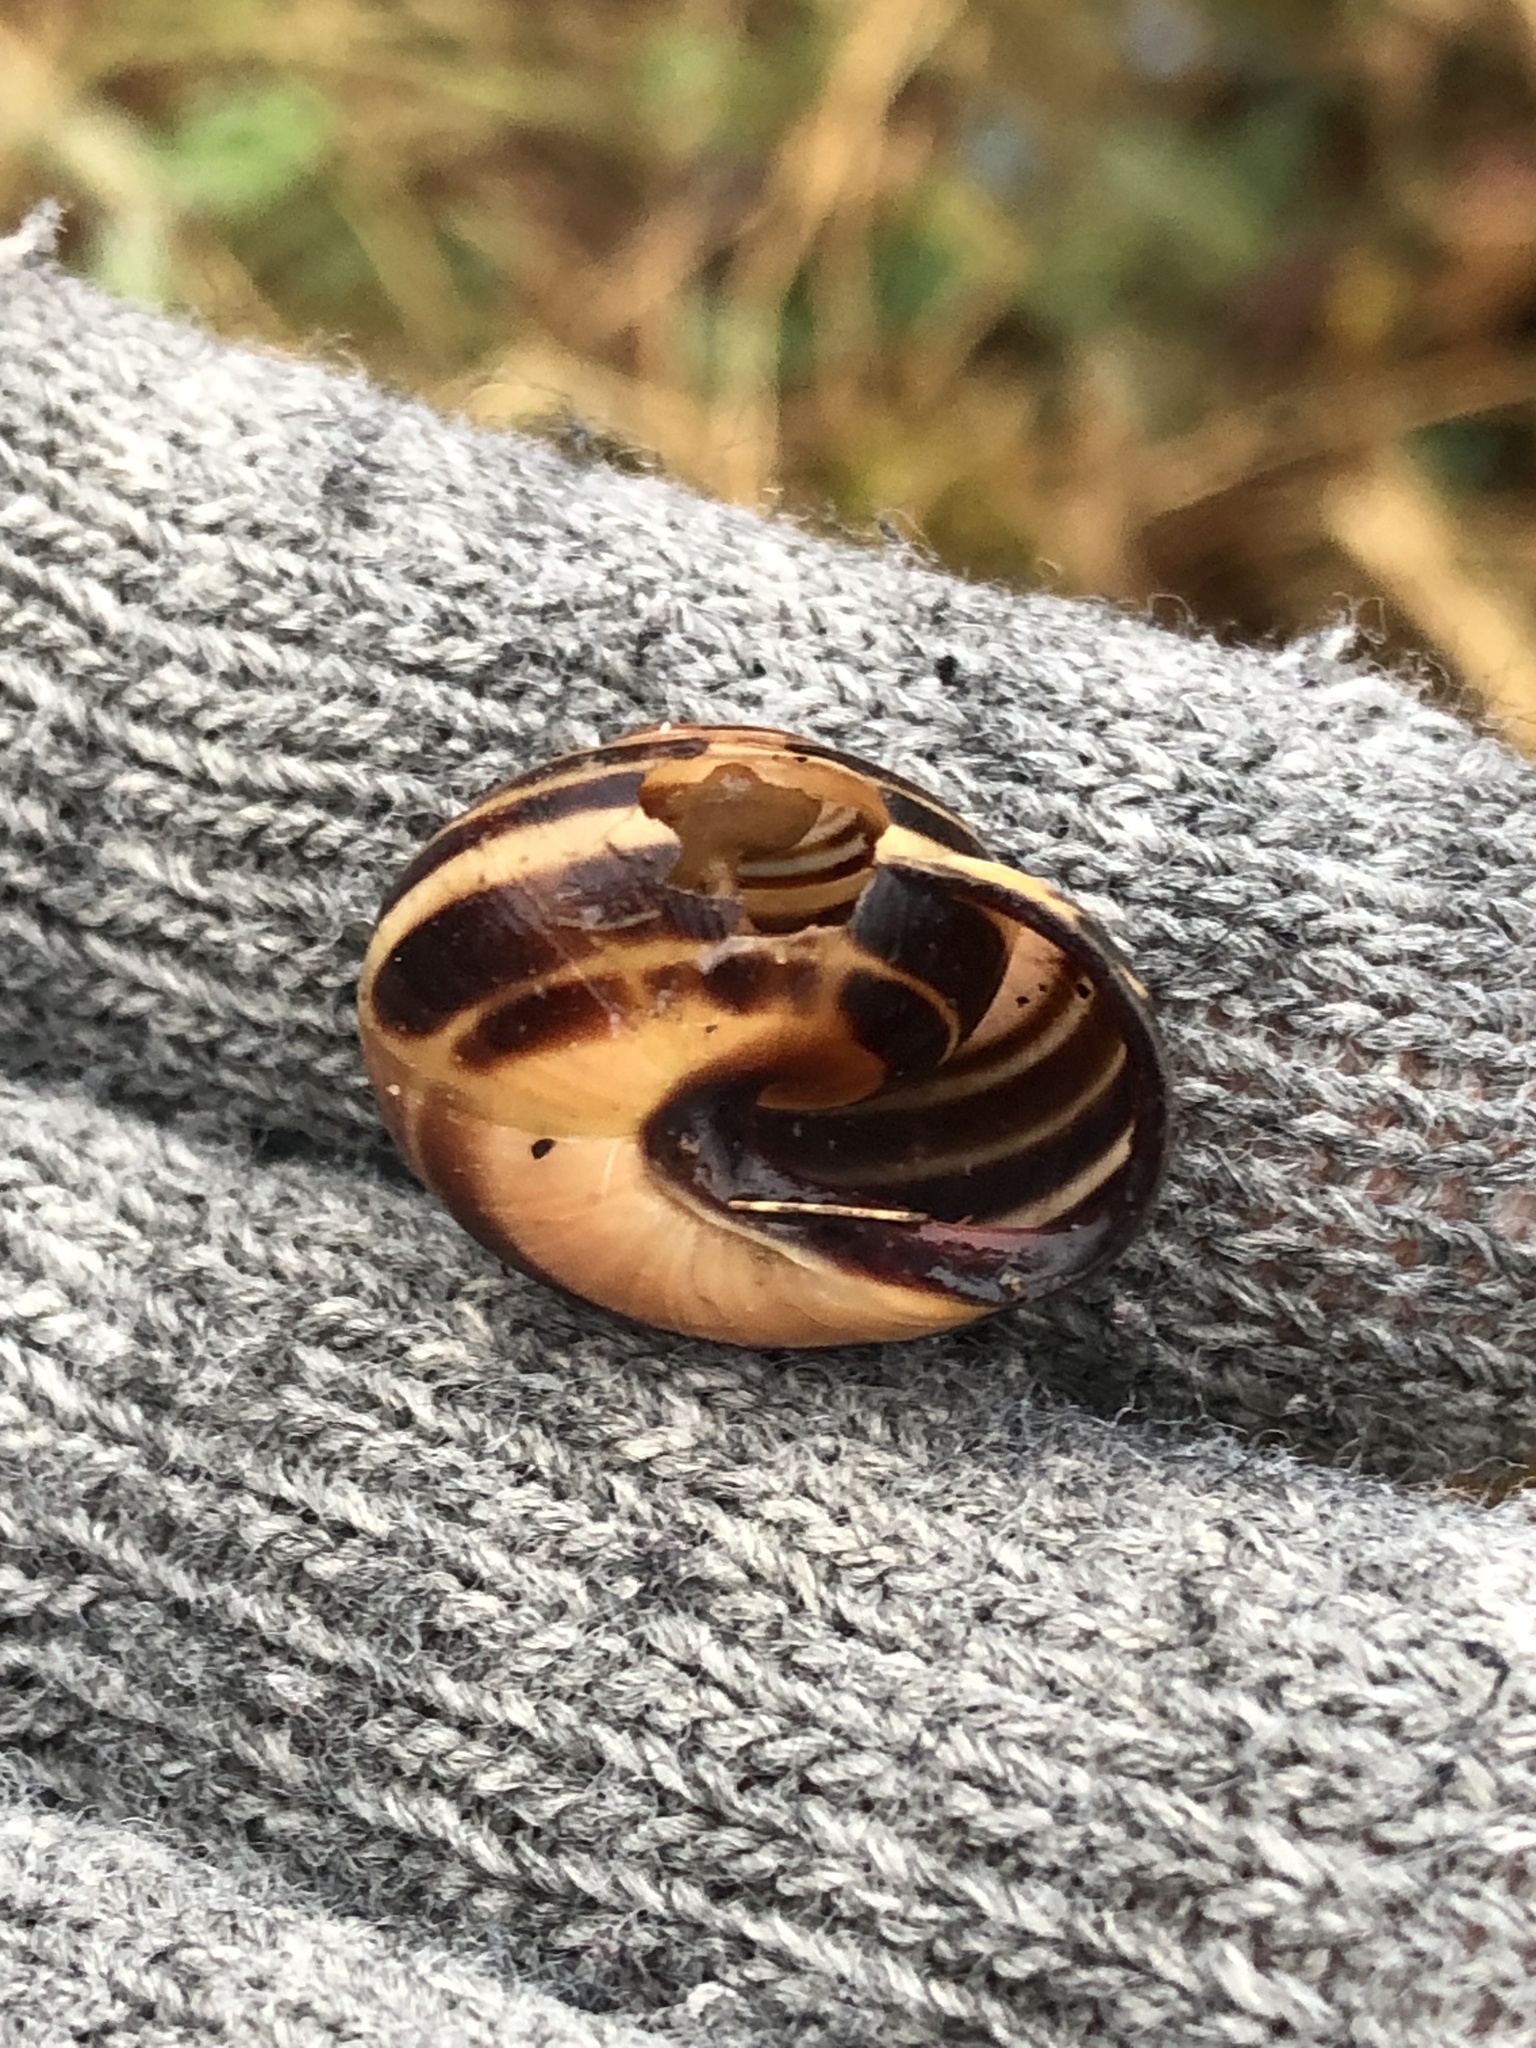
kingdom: Animalia
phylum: Mollusca
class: Gastropoda
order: Stylommatophora
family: Helicidae
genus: Cepaea
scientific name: Cepaea nemoralis
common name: Grovesnail
